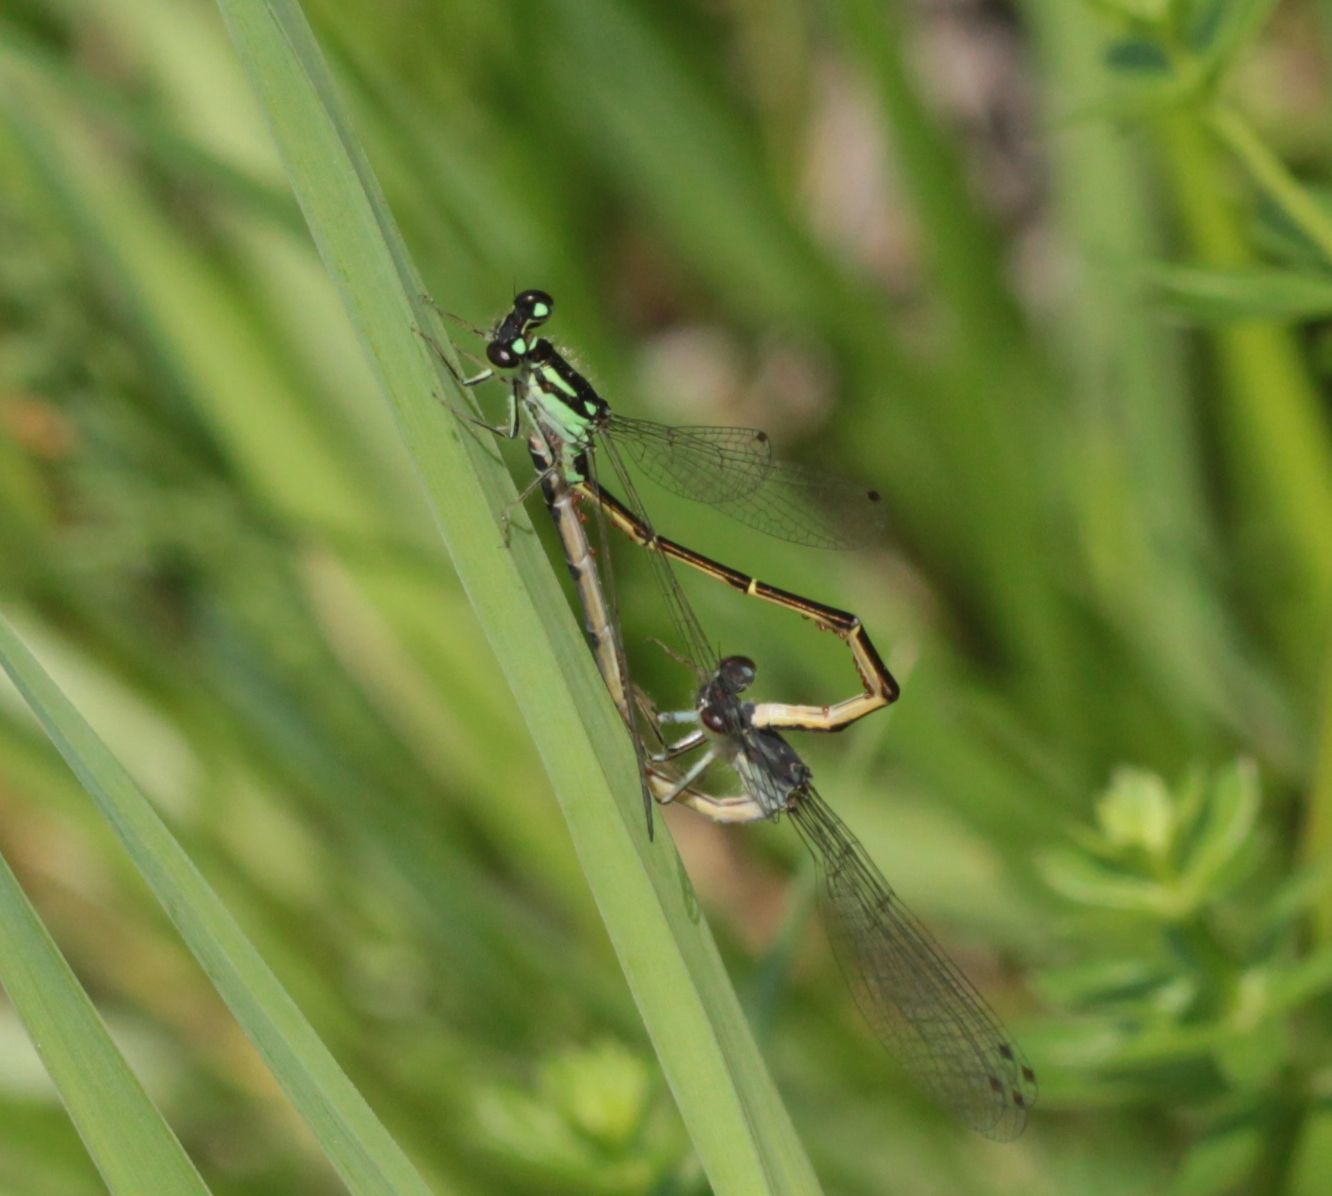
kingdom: Animalia
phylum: Arthropoda
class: Insecta
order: Odonata
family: Coenagrionidae
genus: Ischnura
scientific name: Ischnura posita
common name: Fragile forktail
